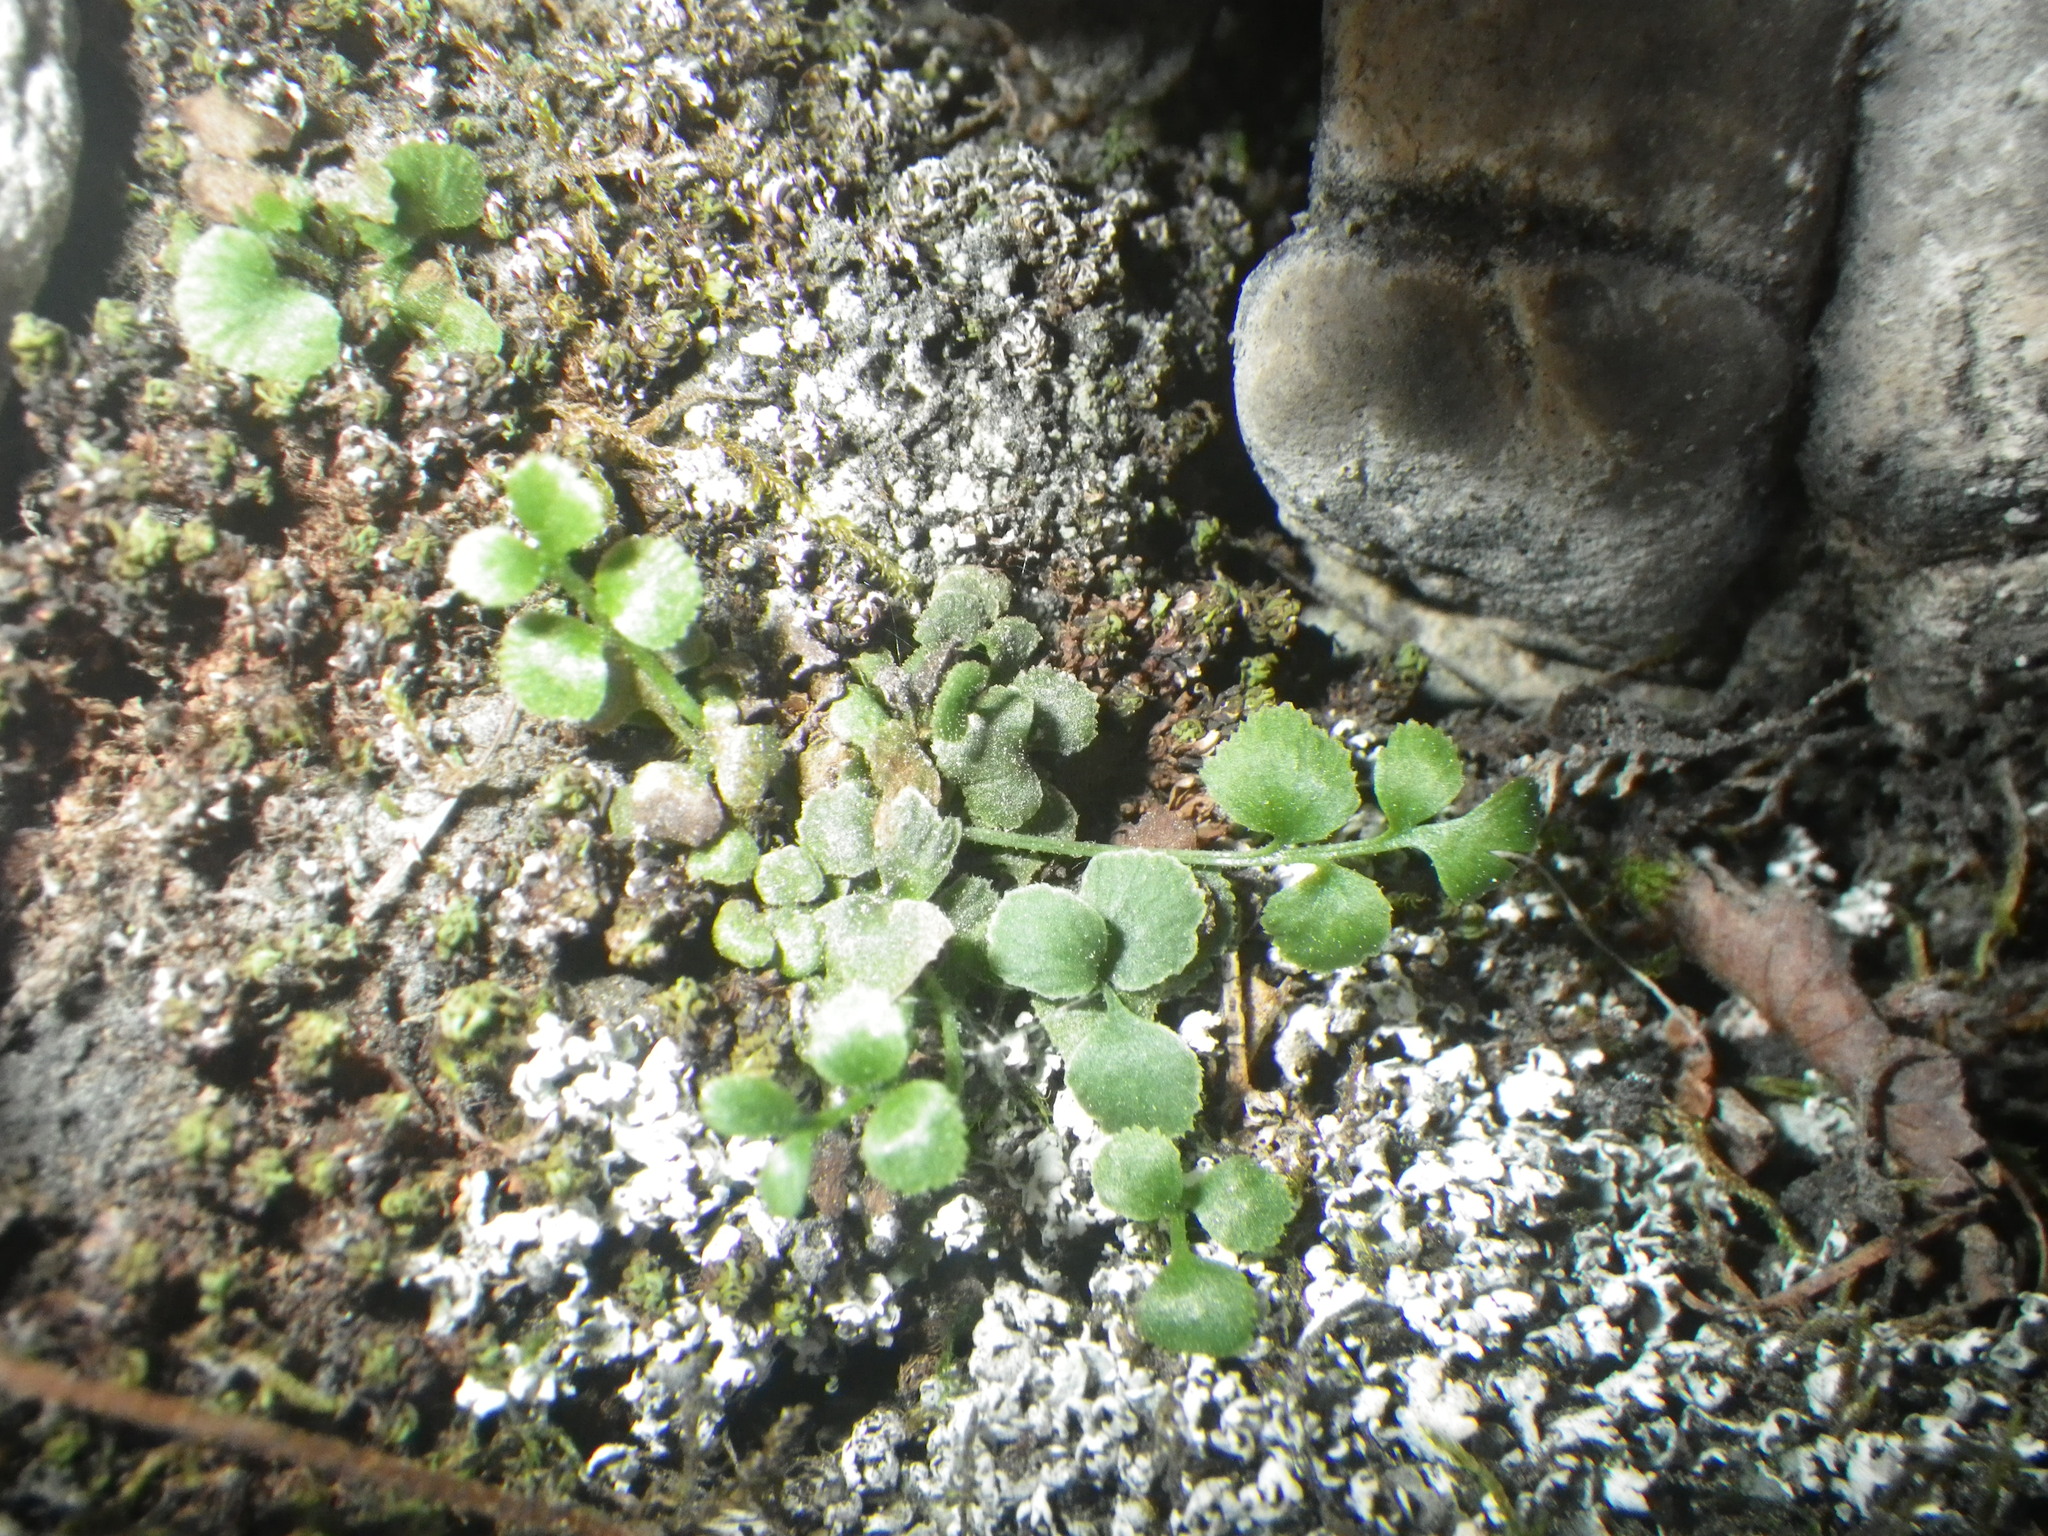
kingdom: Plantae
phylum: Tracheophyta
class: Polypodiopsida
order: Polypodiales
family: Aspleniaceae
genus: Asplenium
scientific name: Asplenium ruta-muraria
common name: Wall-rue
